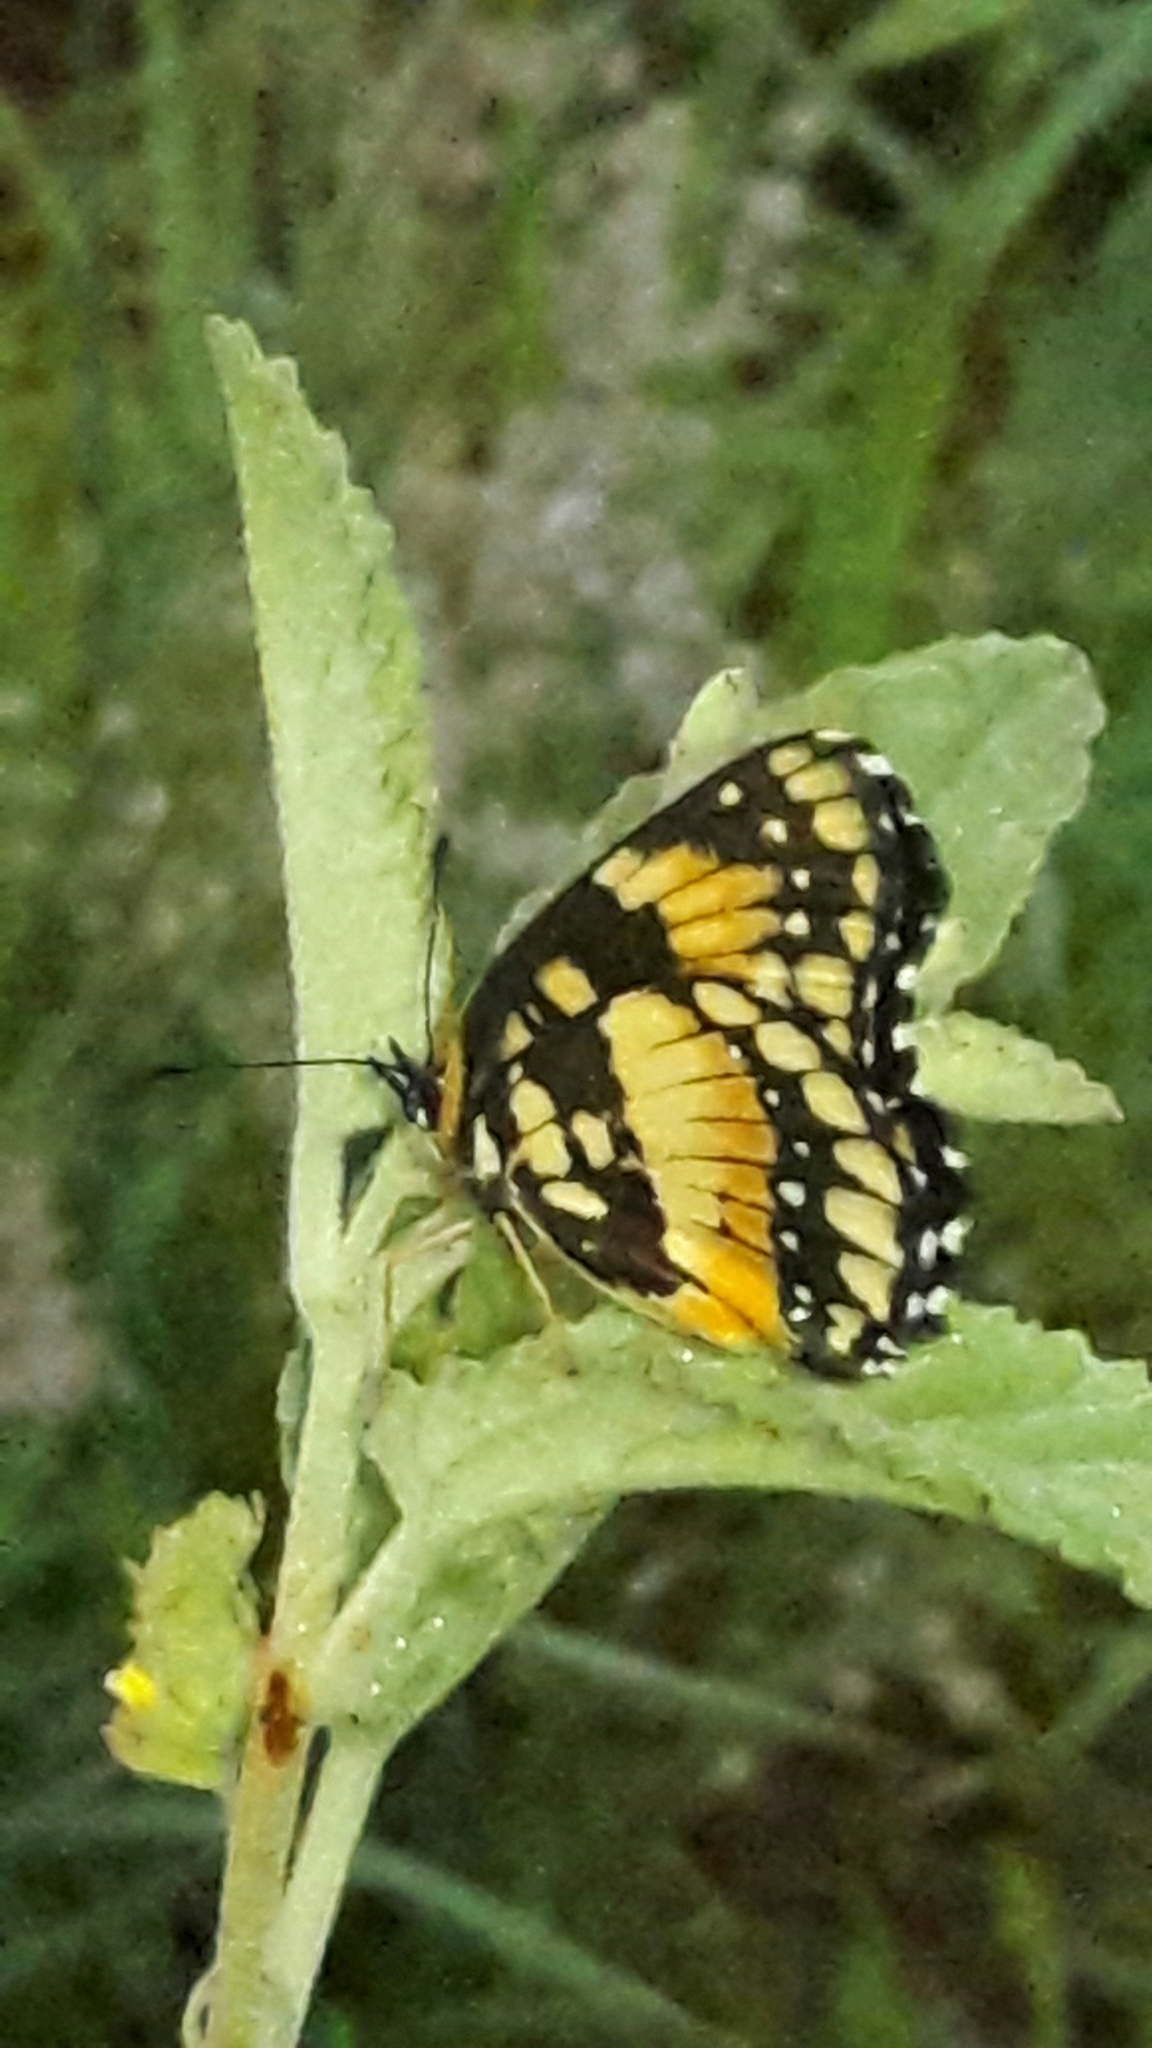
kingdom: Animalia
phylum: Arthropoda
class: Insecta
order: Lepidoptera
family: Nymphalidae
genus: Chlosyne
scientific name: Chlosyne lacinia
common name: Bordered patch
